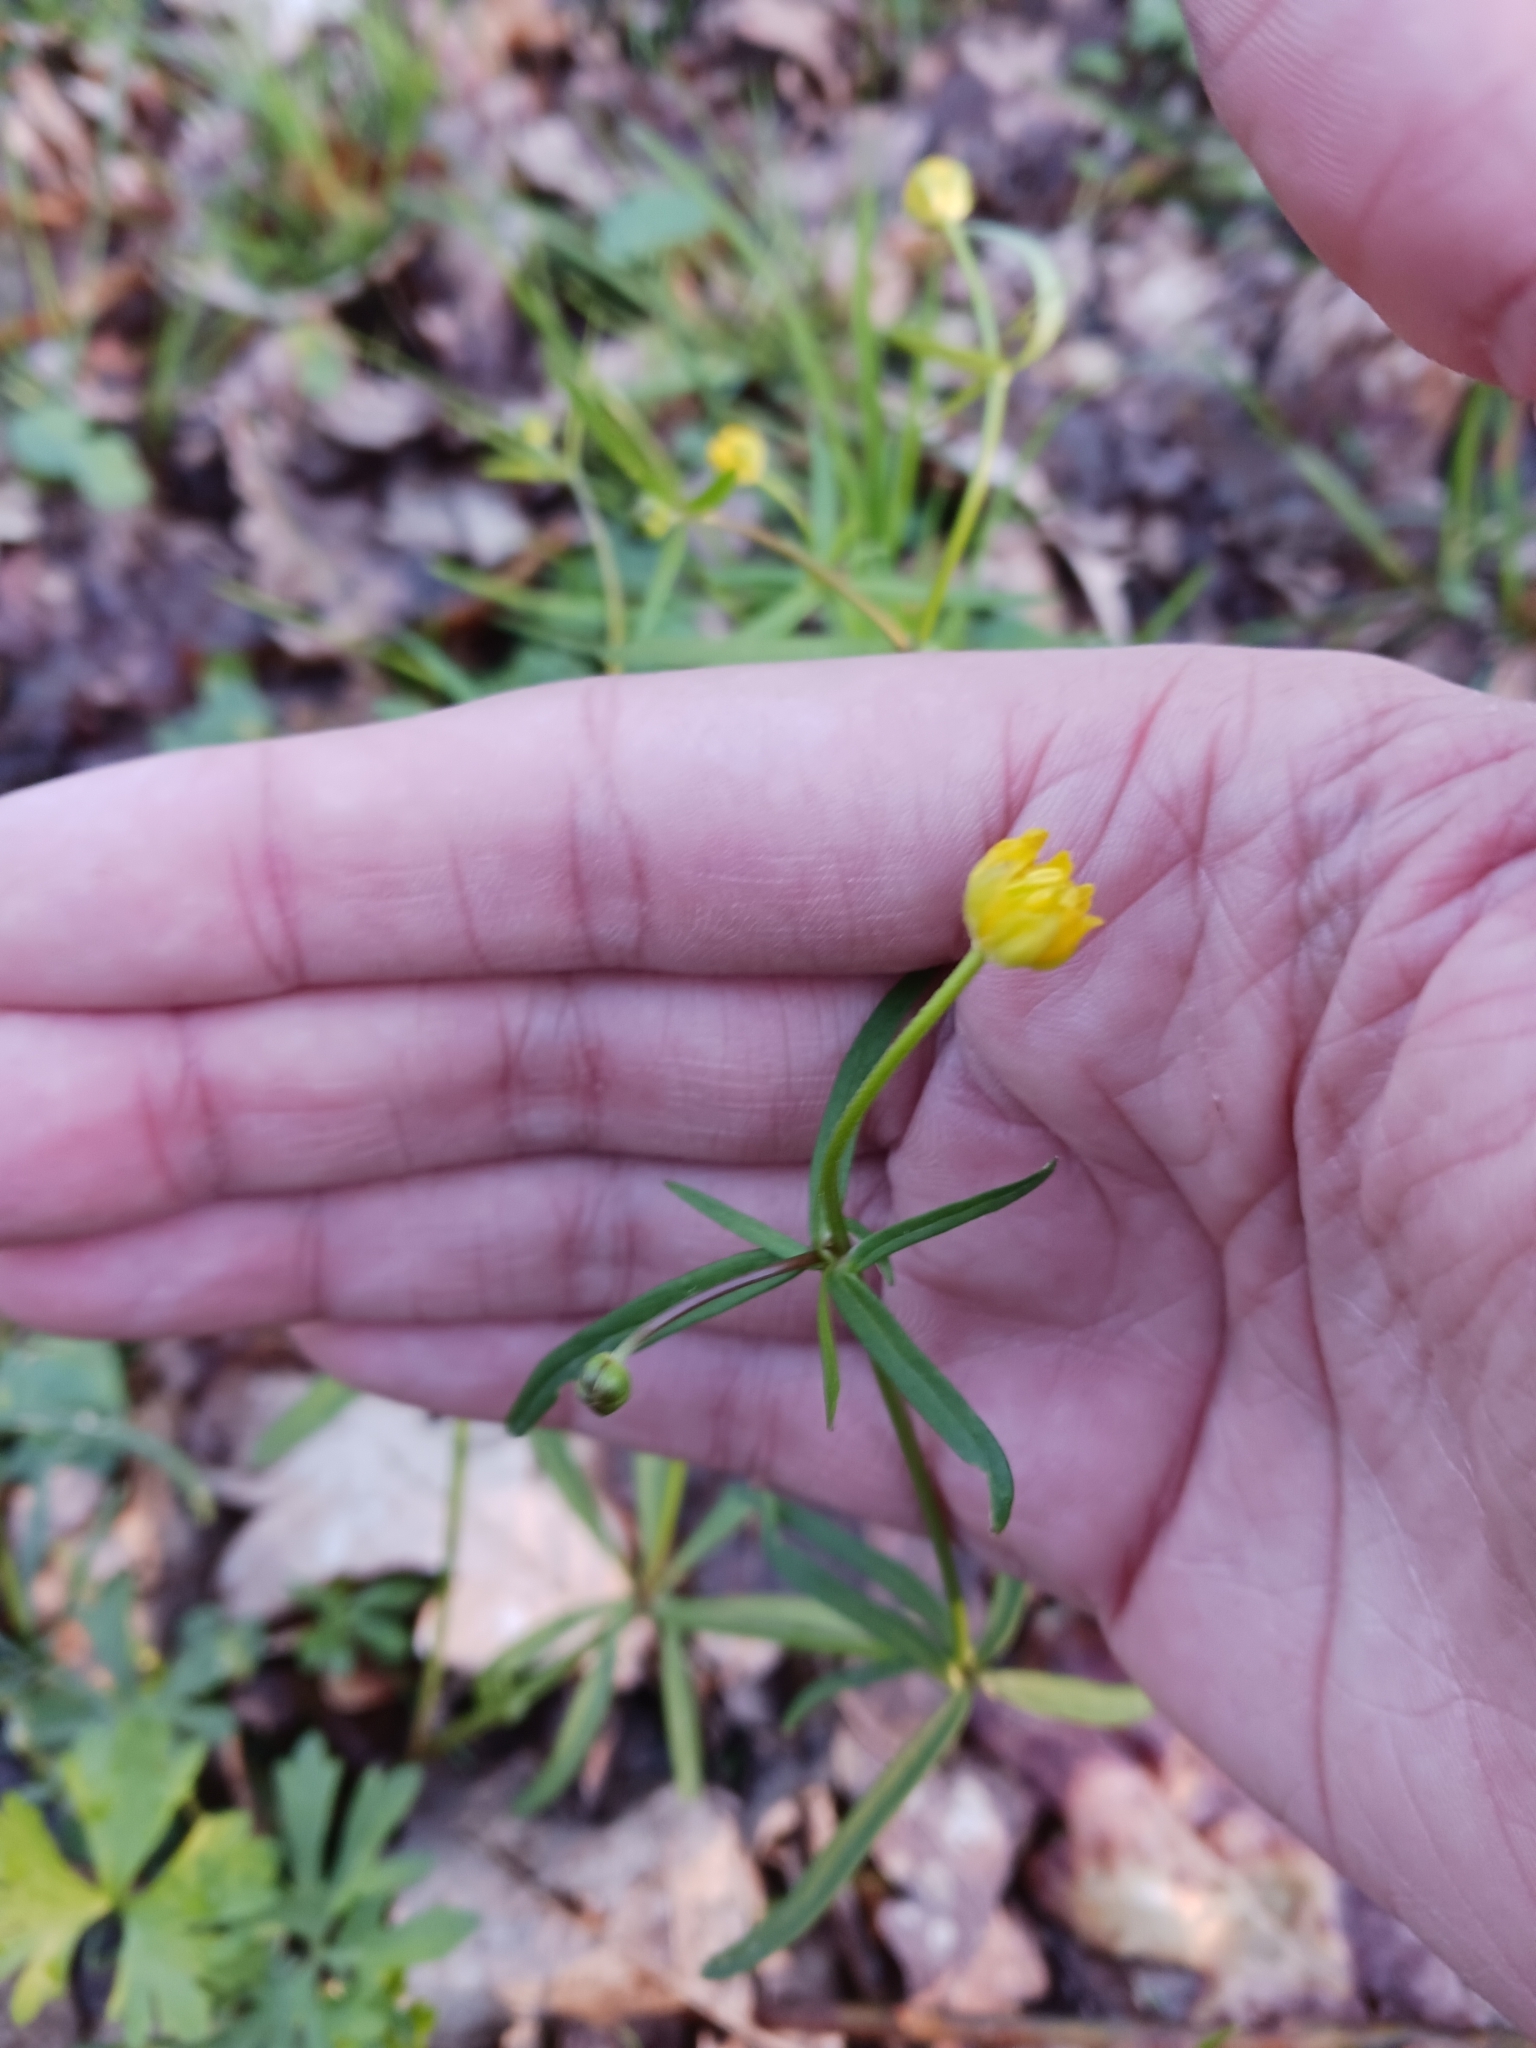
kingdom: Plantae
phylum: Tracheophyta
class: Magnoliopsida
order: Ranunculales
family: Ranunculaceae
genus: Ranunculus
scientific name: Ranunculus auricomus
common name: Goldilocks buttercup
